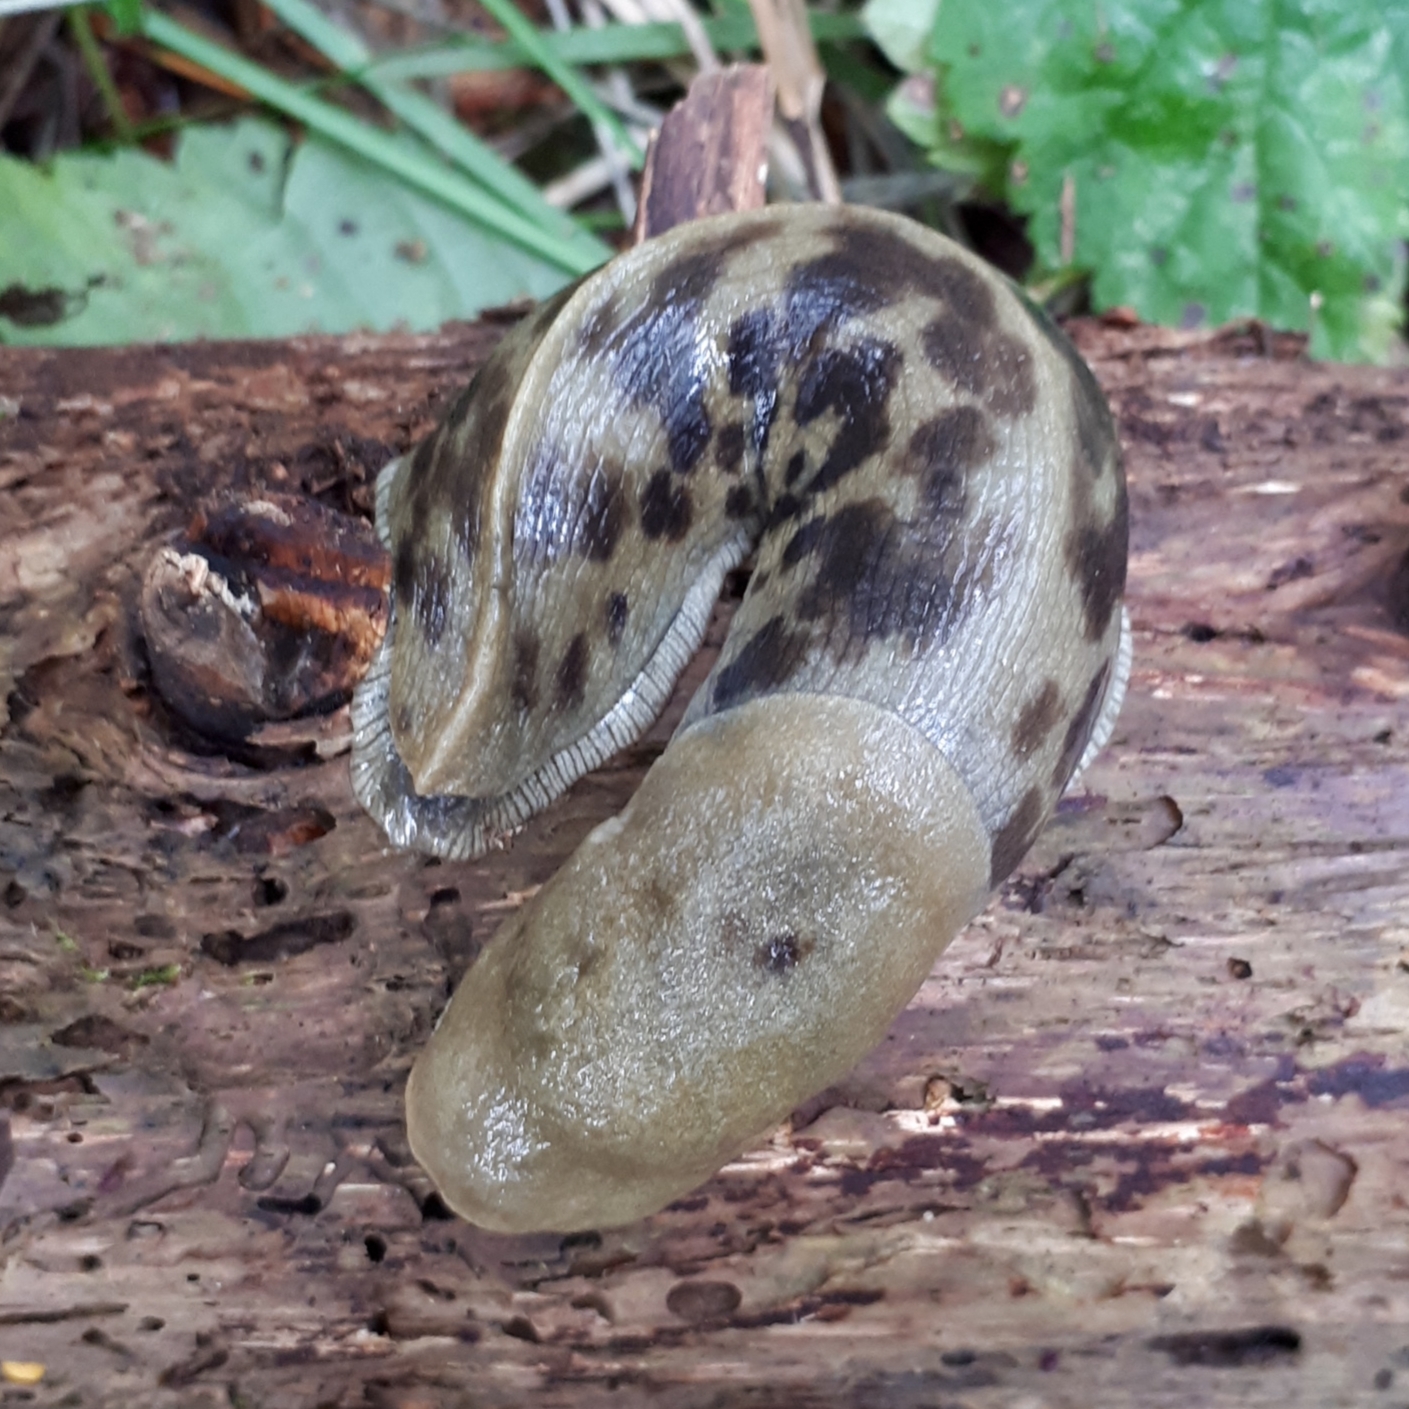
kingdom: Animalia
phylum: Mollusca
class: Gastropoda
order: Stylommatophora
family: Ariolimacidae
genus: Ariolimax
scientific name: Ariolimax columbianus
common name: Pacific banana slug
